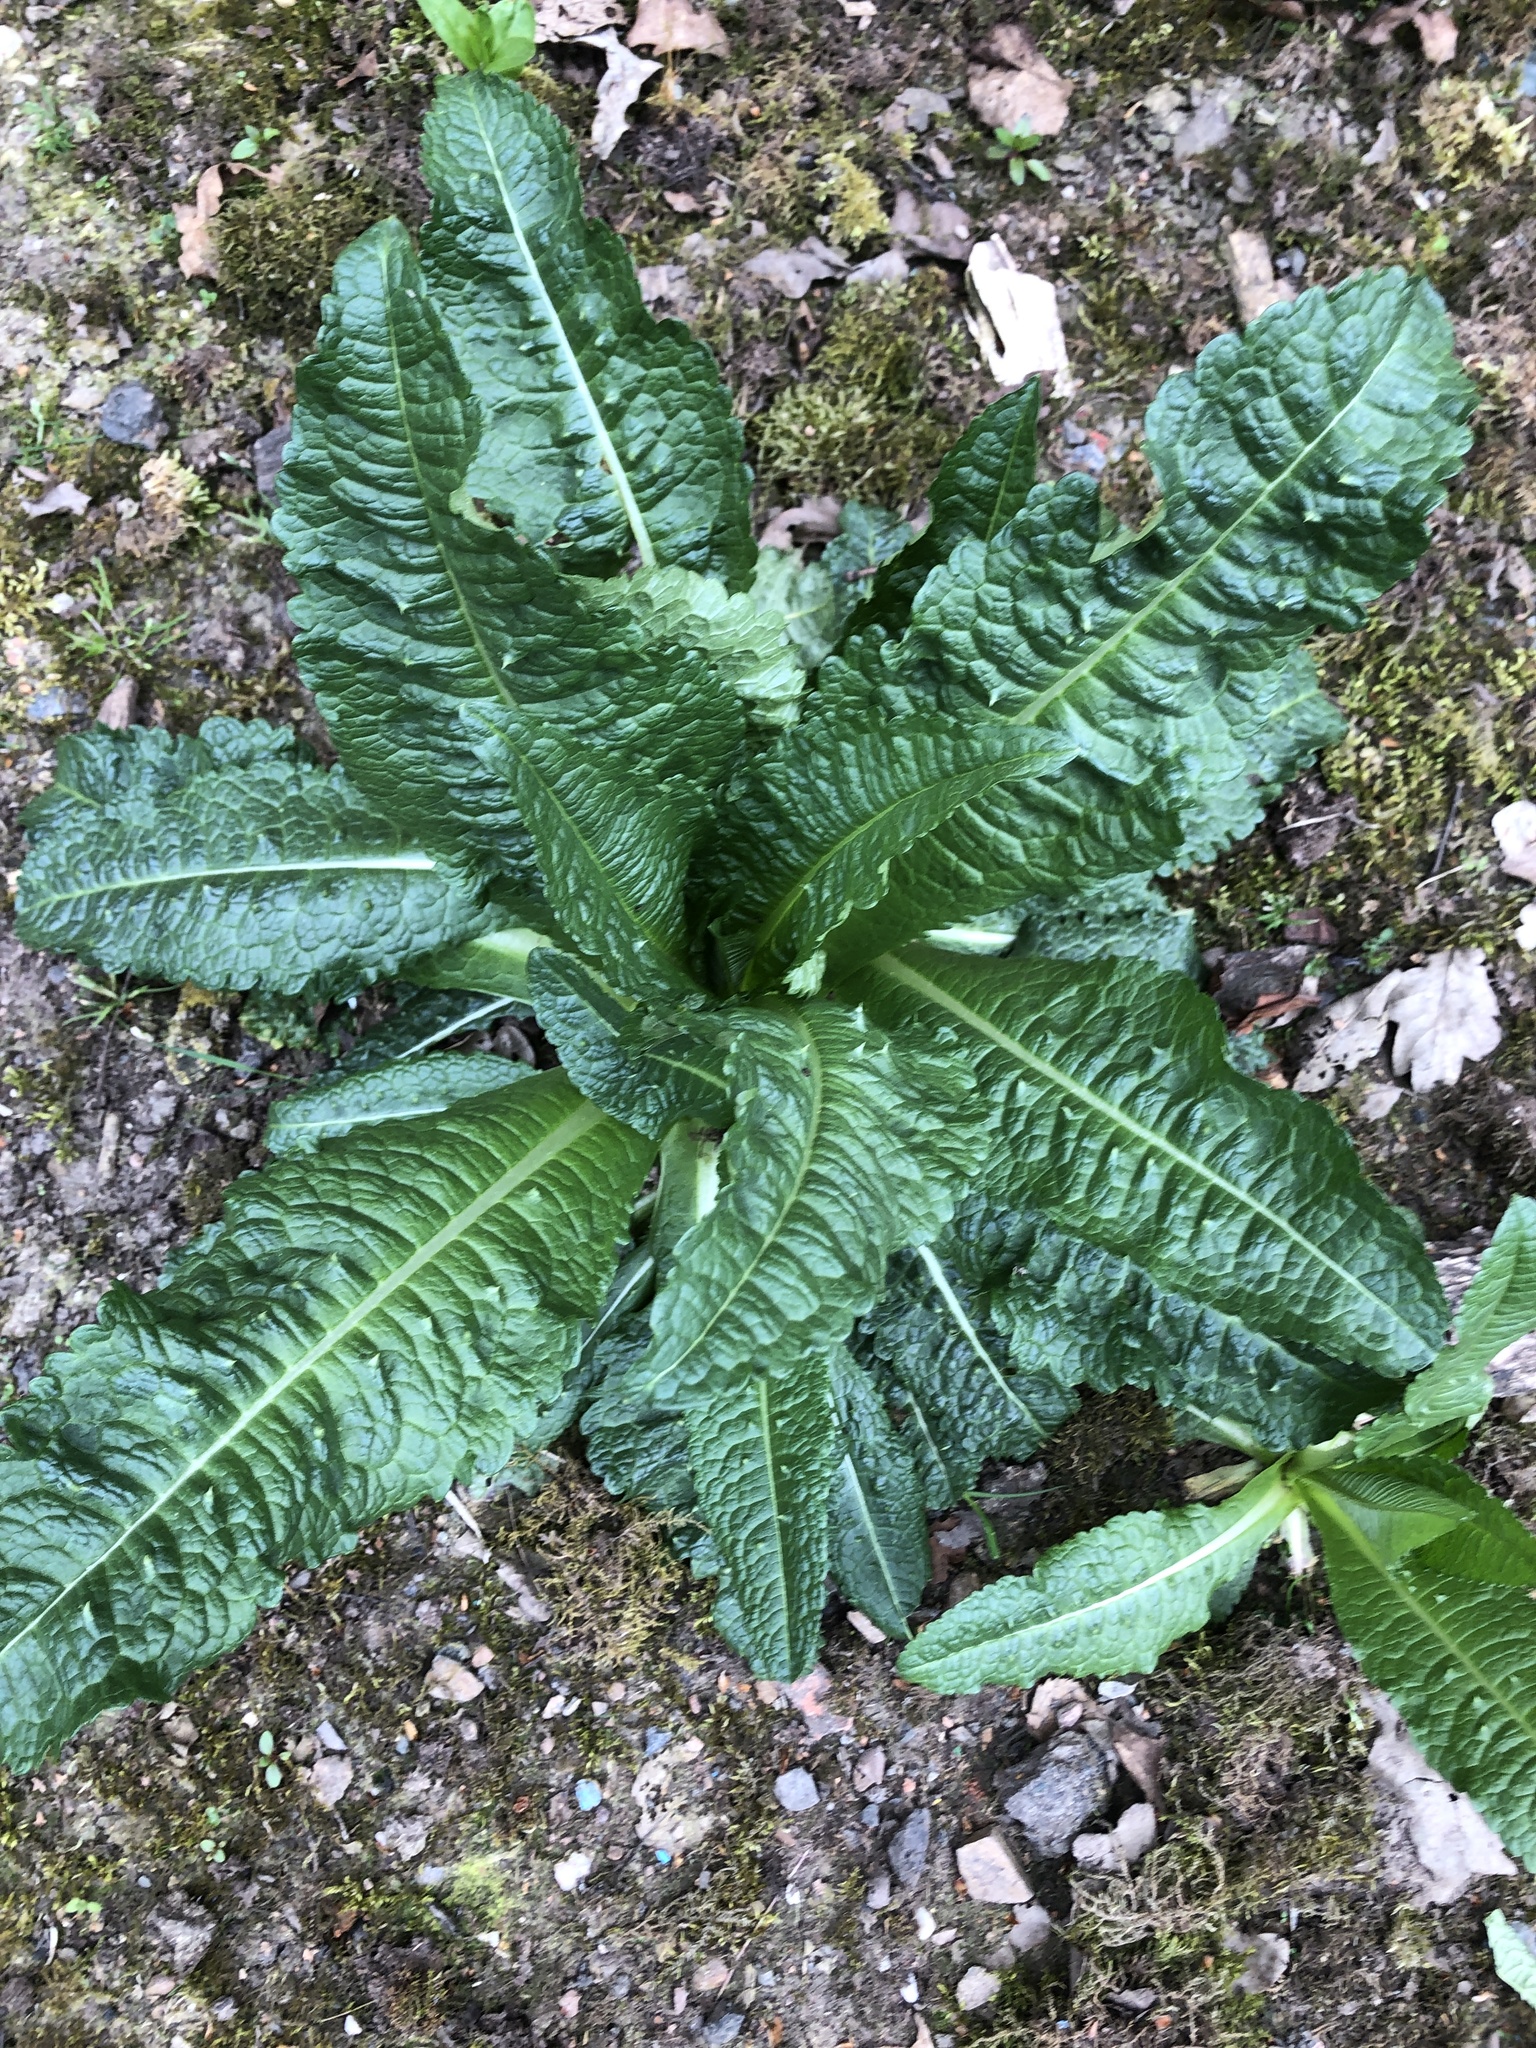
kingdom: Plantae
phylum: Tracheophyta
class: Magnoliopsida
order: Dipsacales
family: Caprifoliaceae
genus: Dipsacus
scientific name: Dipsacus fullonum
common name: Teasel
